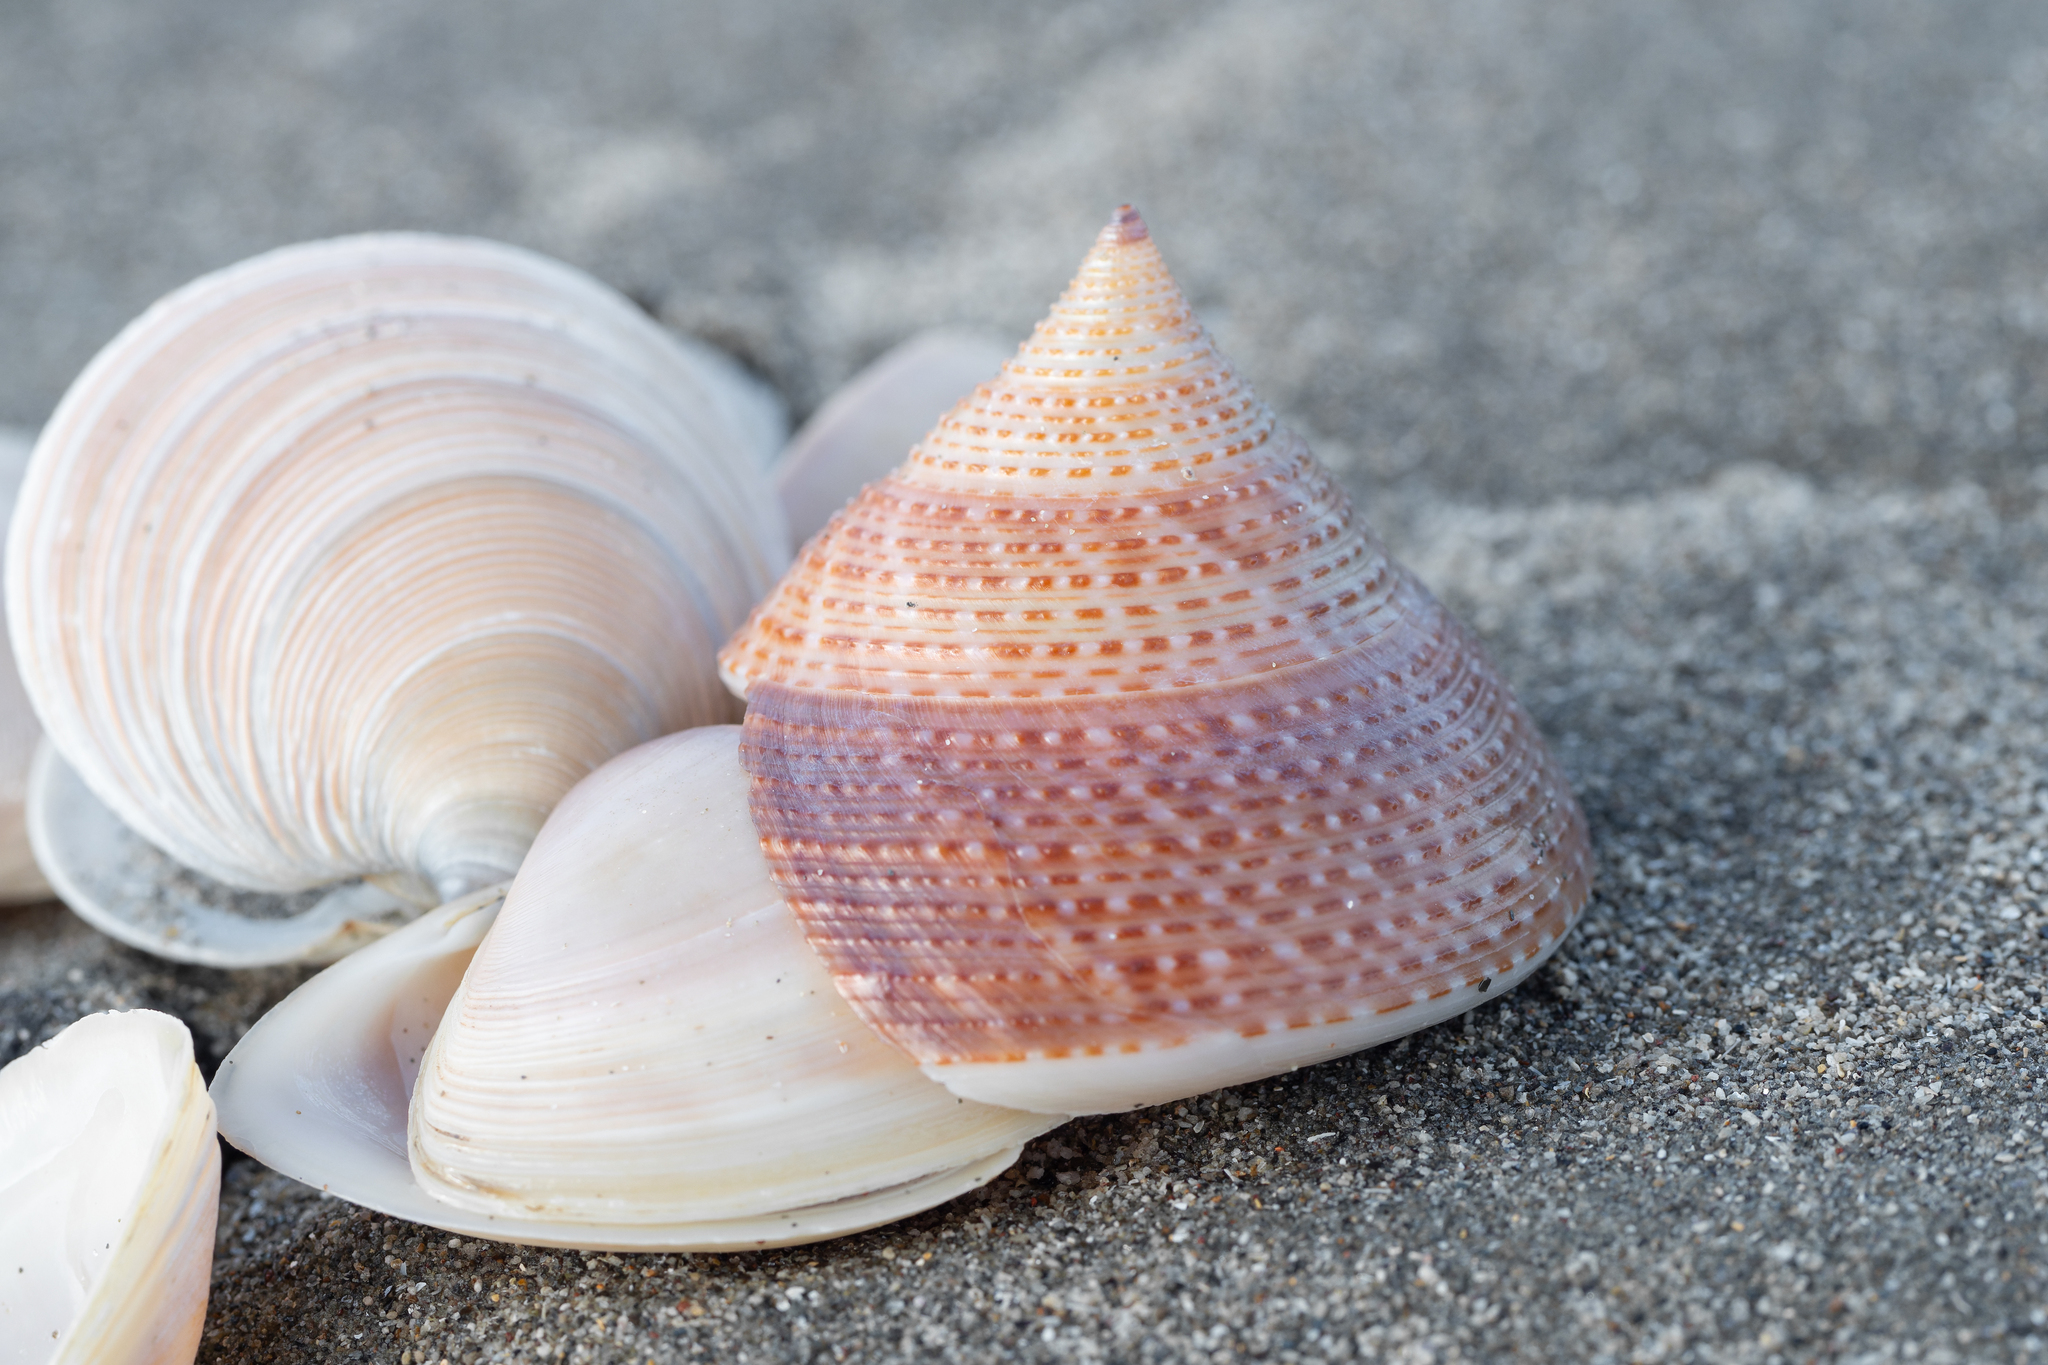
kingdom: Animalia
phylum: Mollusca
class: Gastropoda
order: Trochida
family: Calliostomatidae
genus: Maurea
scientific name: Maurea selecta
